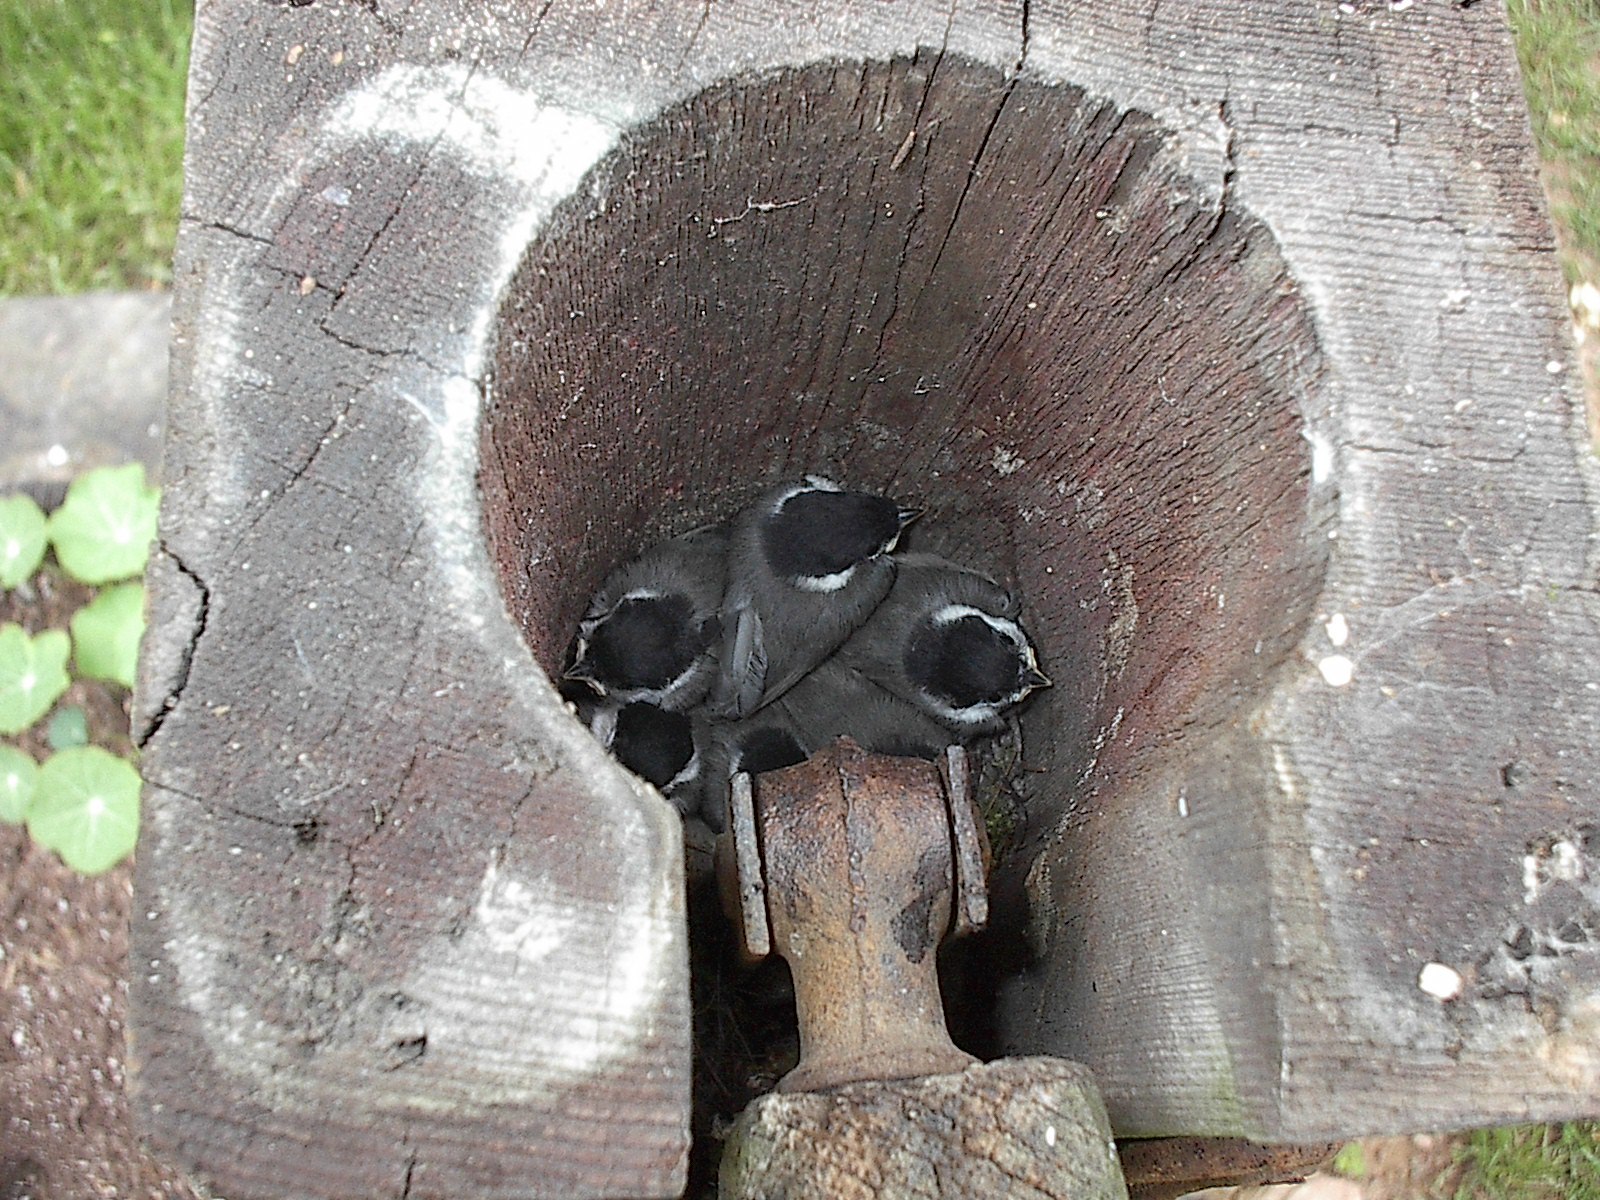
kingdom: Animalia
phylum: Chordata
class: Aves
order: Passeriformes
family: Paridae
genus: Poecile
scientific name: Poecile carolinensis
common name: Carolina chickadee
